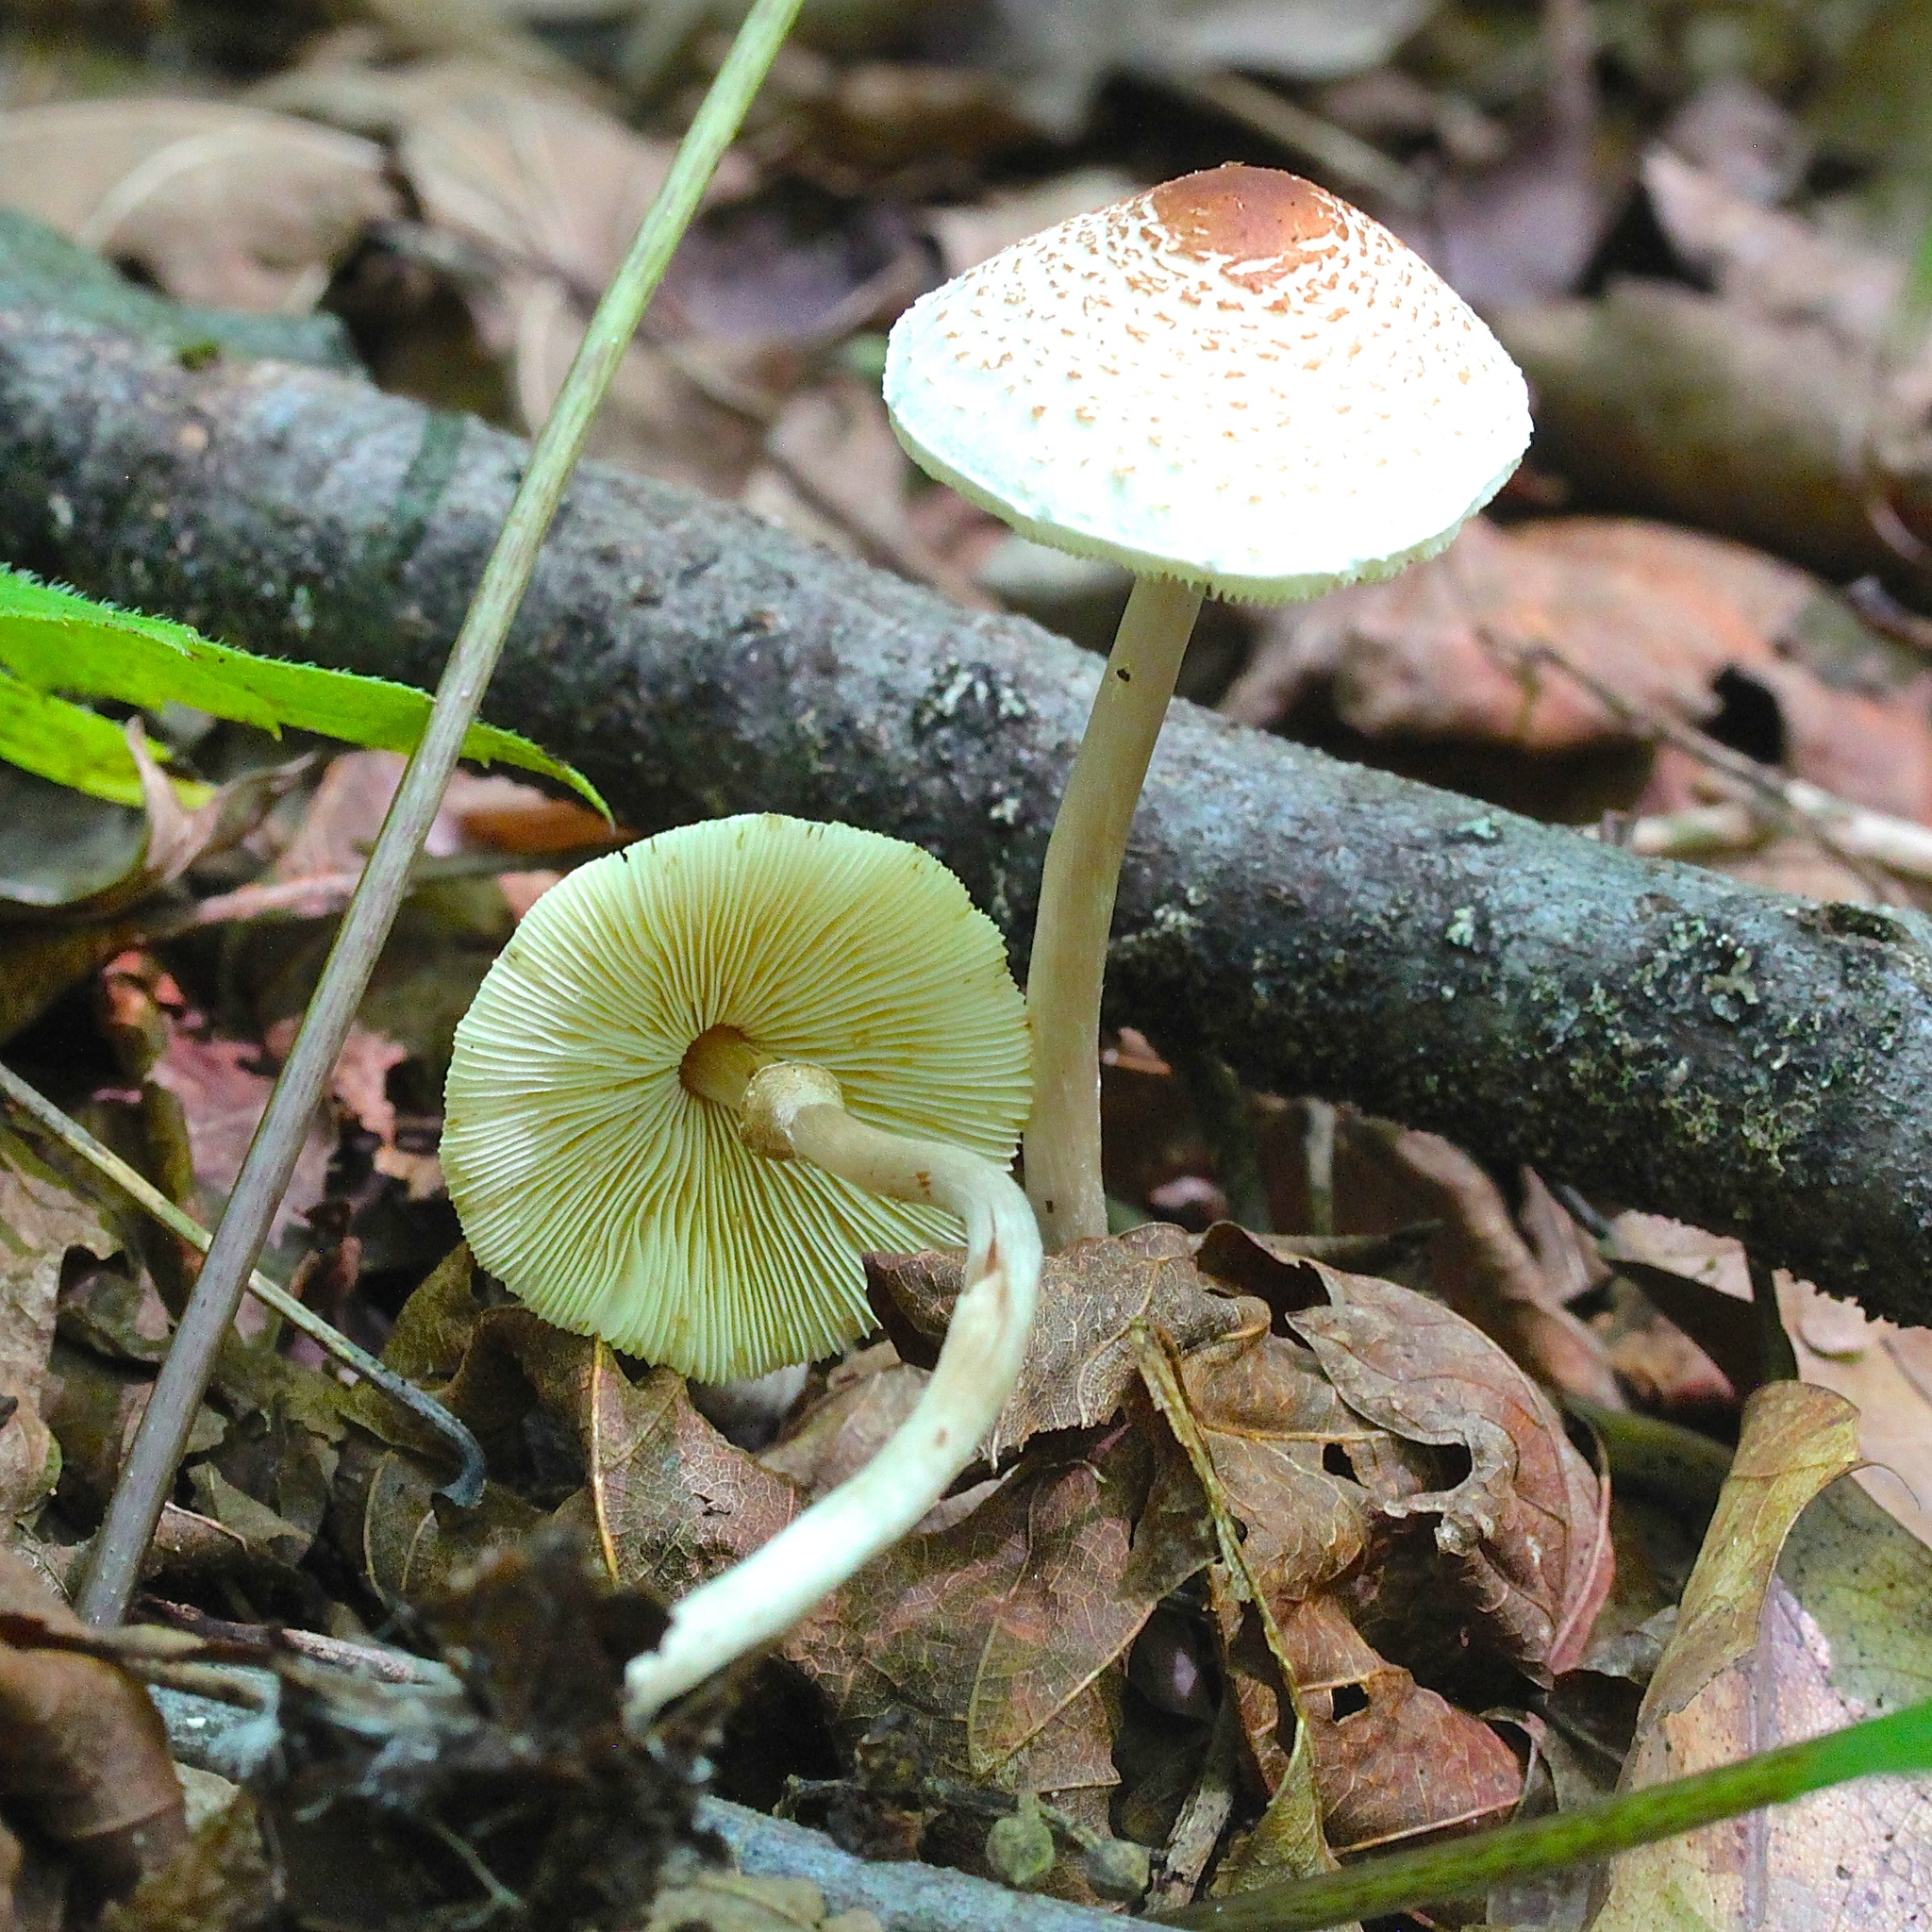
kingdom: Fungi
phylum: Basidiomycota
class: Agaricomycetes
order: Agaricales
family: Agaricaceae
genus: Lepiota
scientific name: Lepiota cristata
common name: Stinking dapperling
